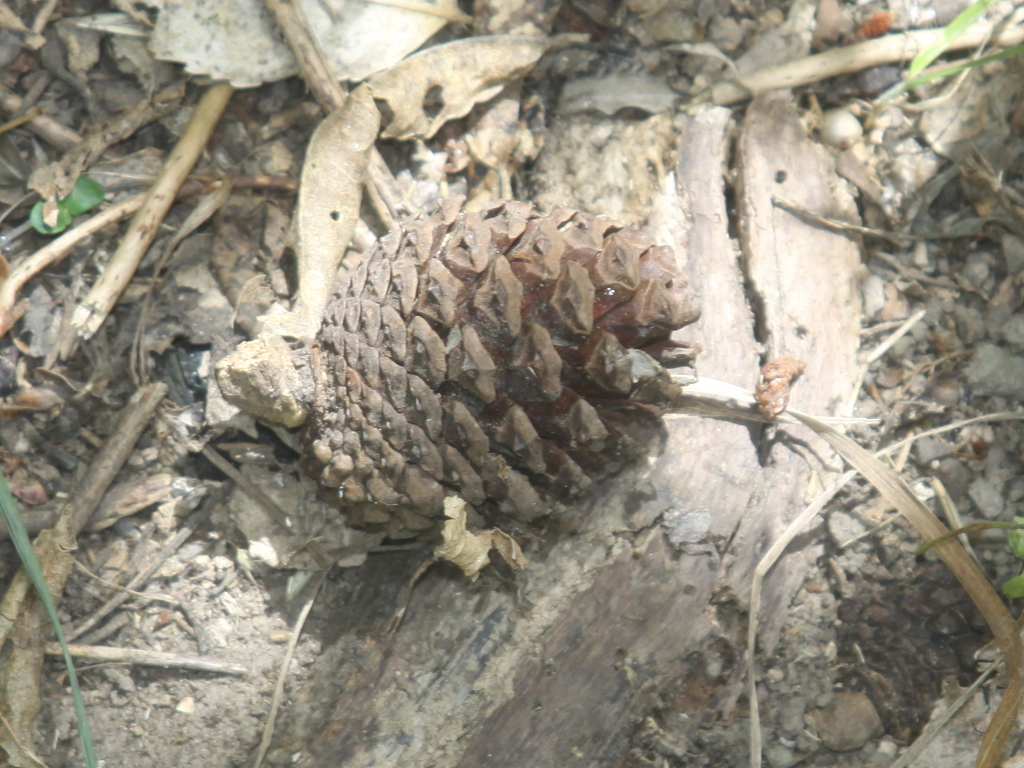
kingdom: Plantae
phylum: Tracheophyta
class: Pinopsida
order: Pinales
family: Pinaceae
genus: Pinus
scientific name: Pinus radiata
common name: Monterey pine
